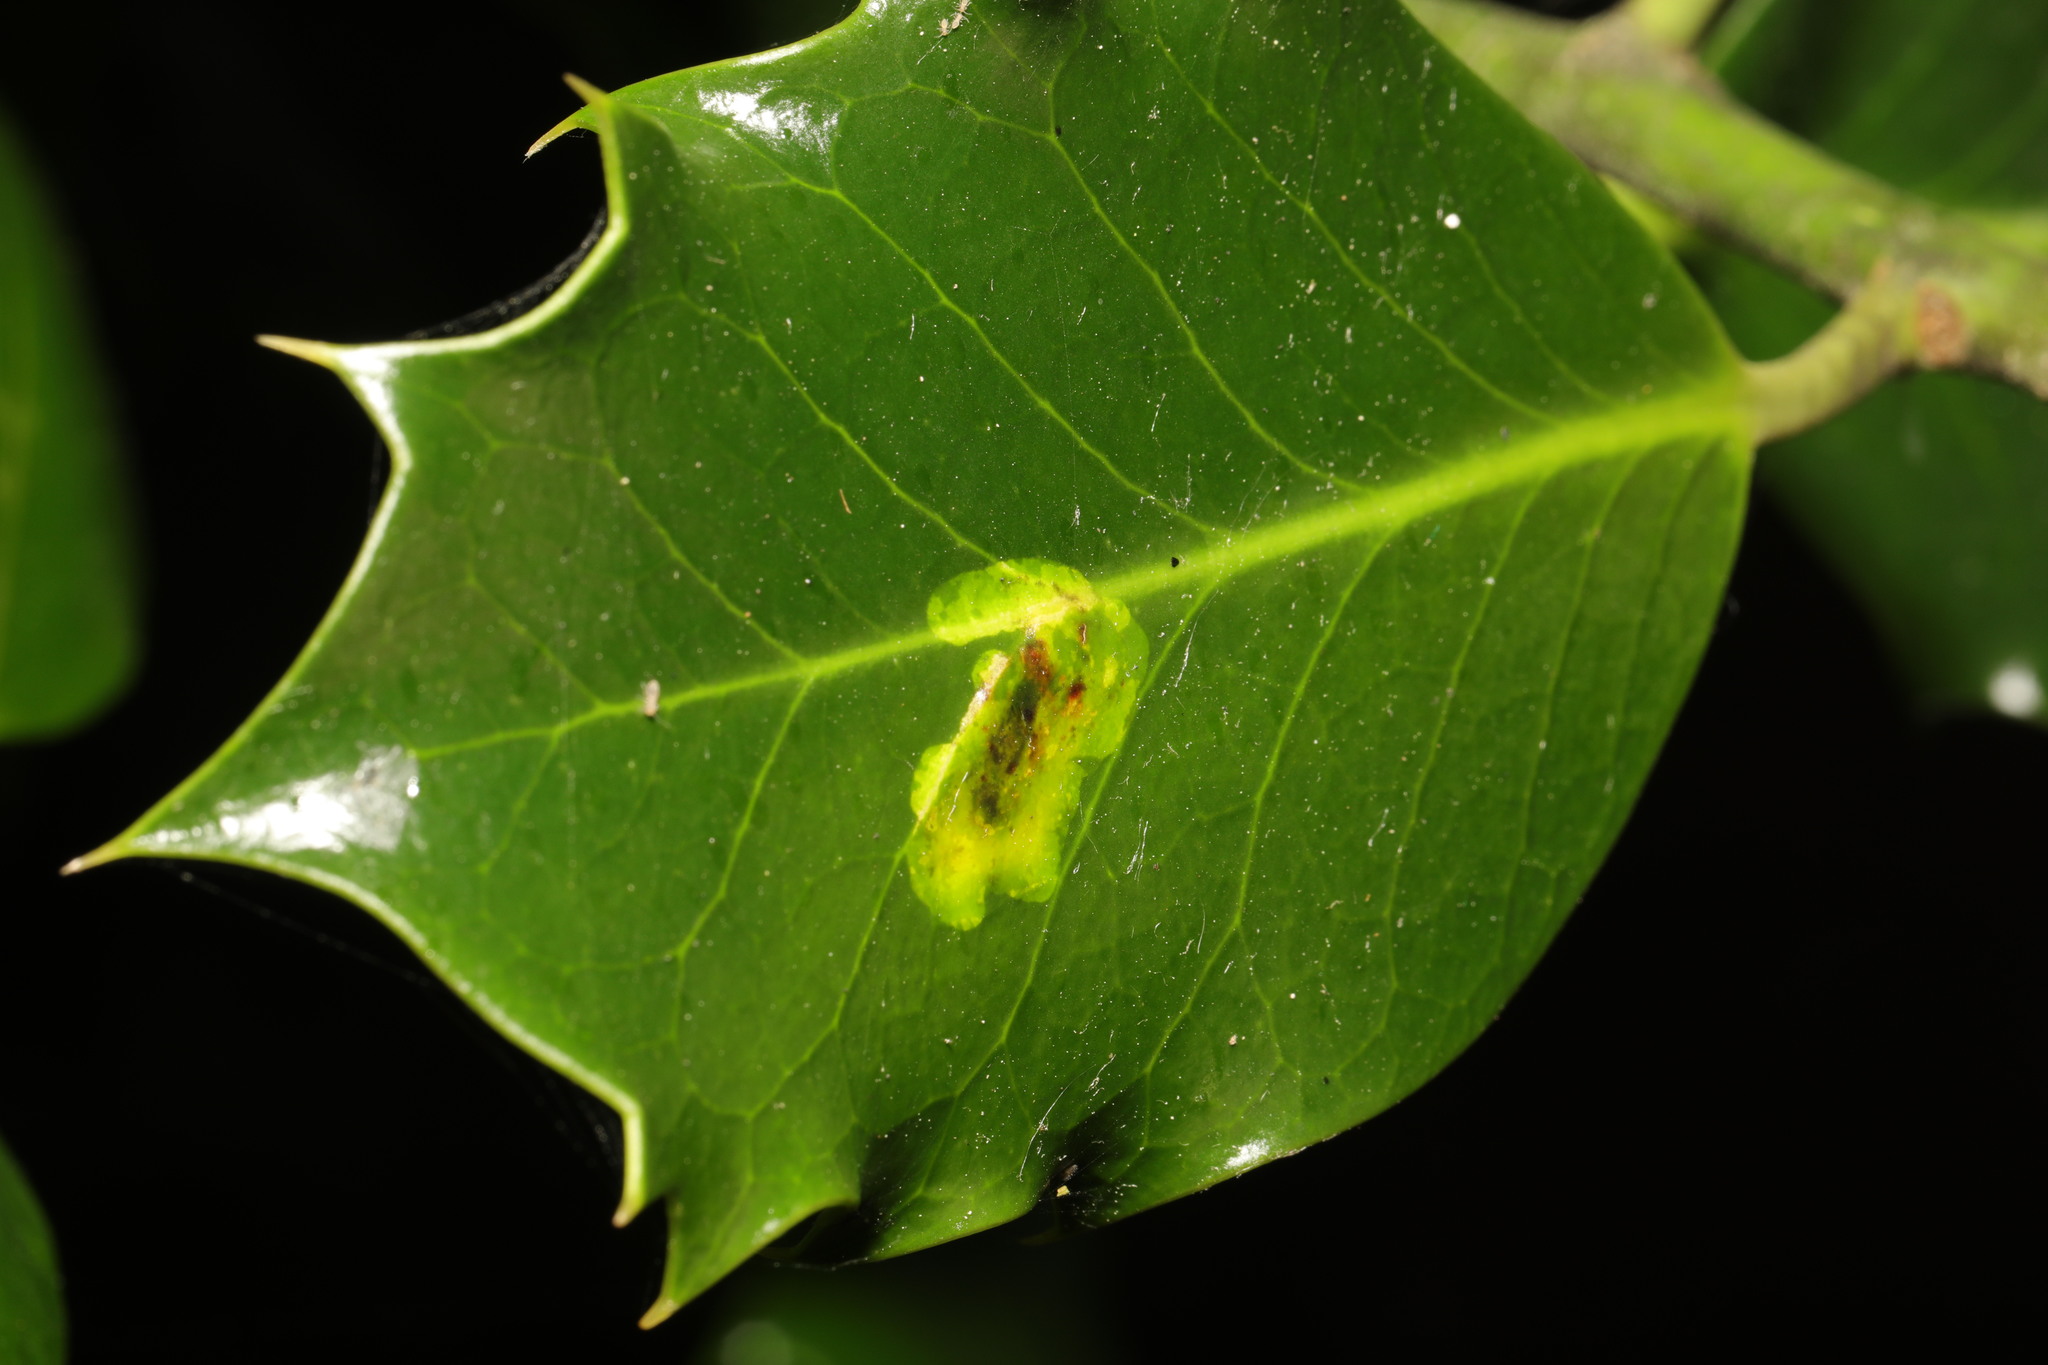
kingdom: Animalia
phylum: Arthropoda
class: Insecta
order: Diptera
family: Agromyzidae
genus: Phytomyza
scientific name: Phytomyza ilicis
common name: Holly leafminer
